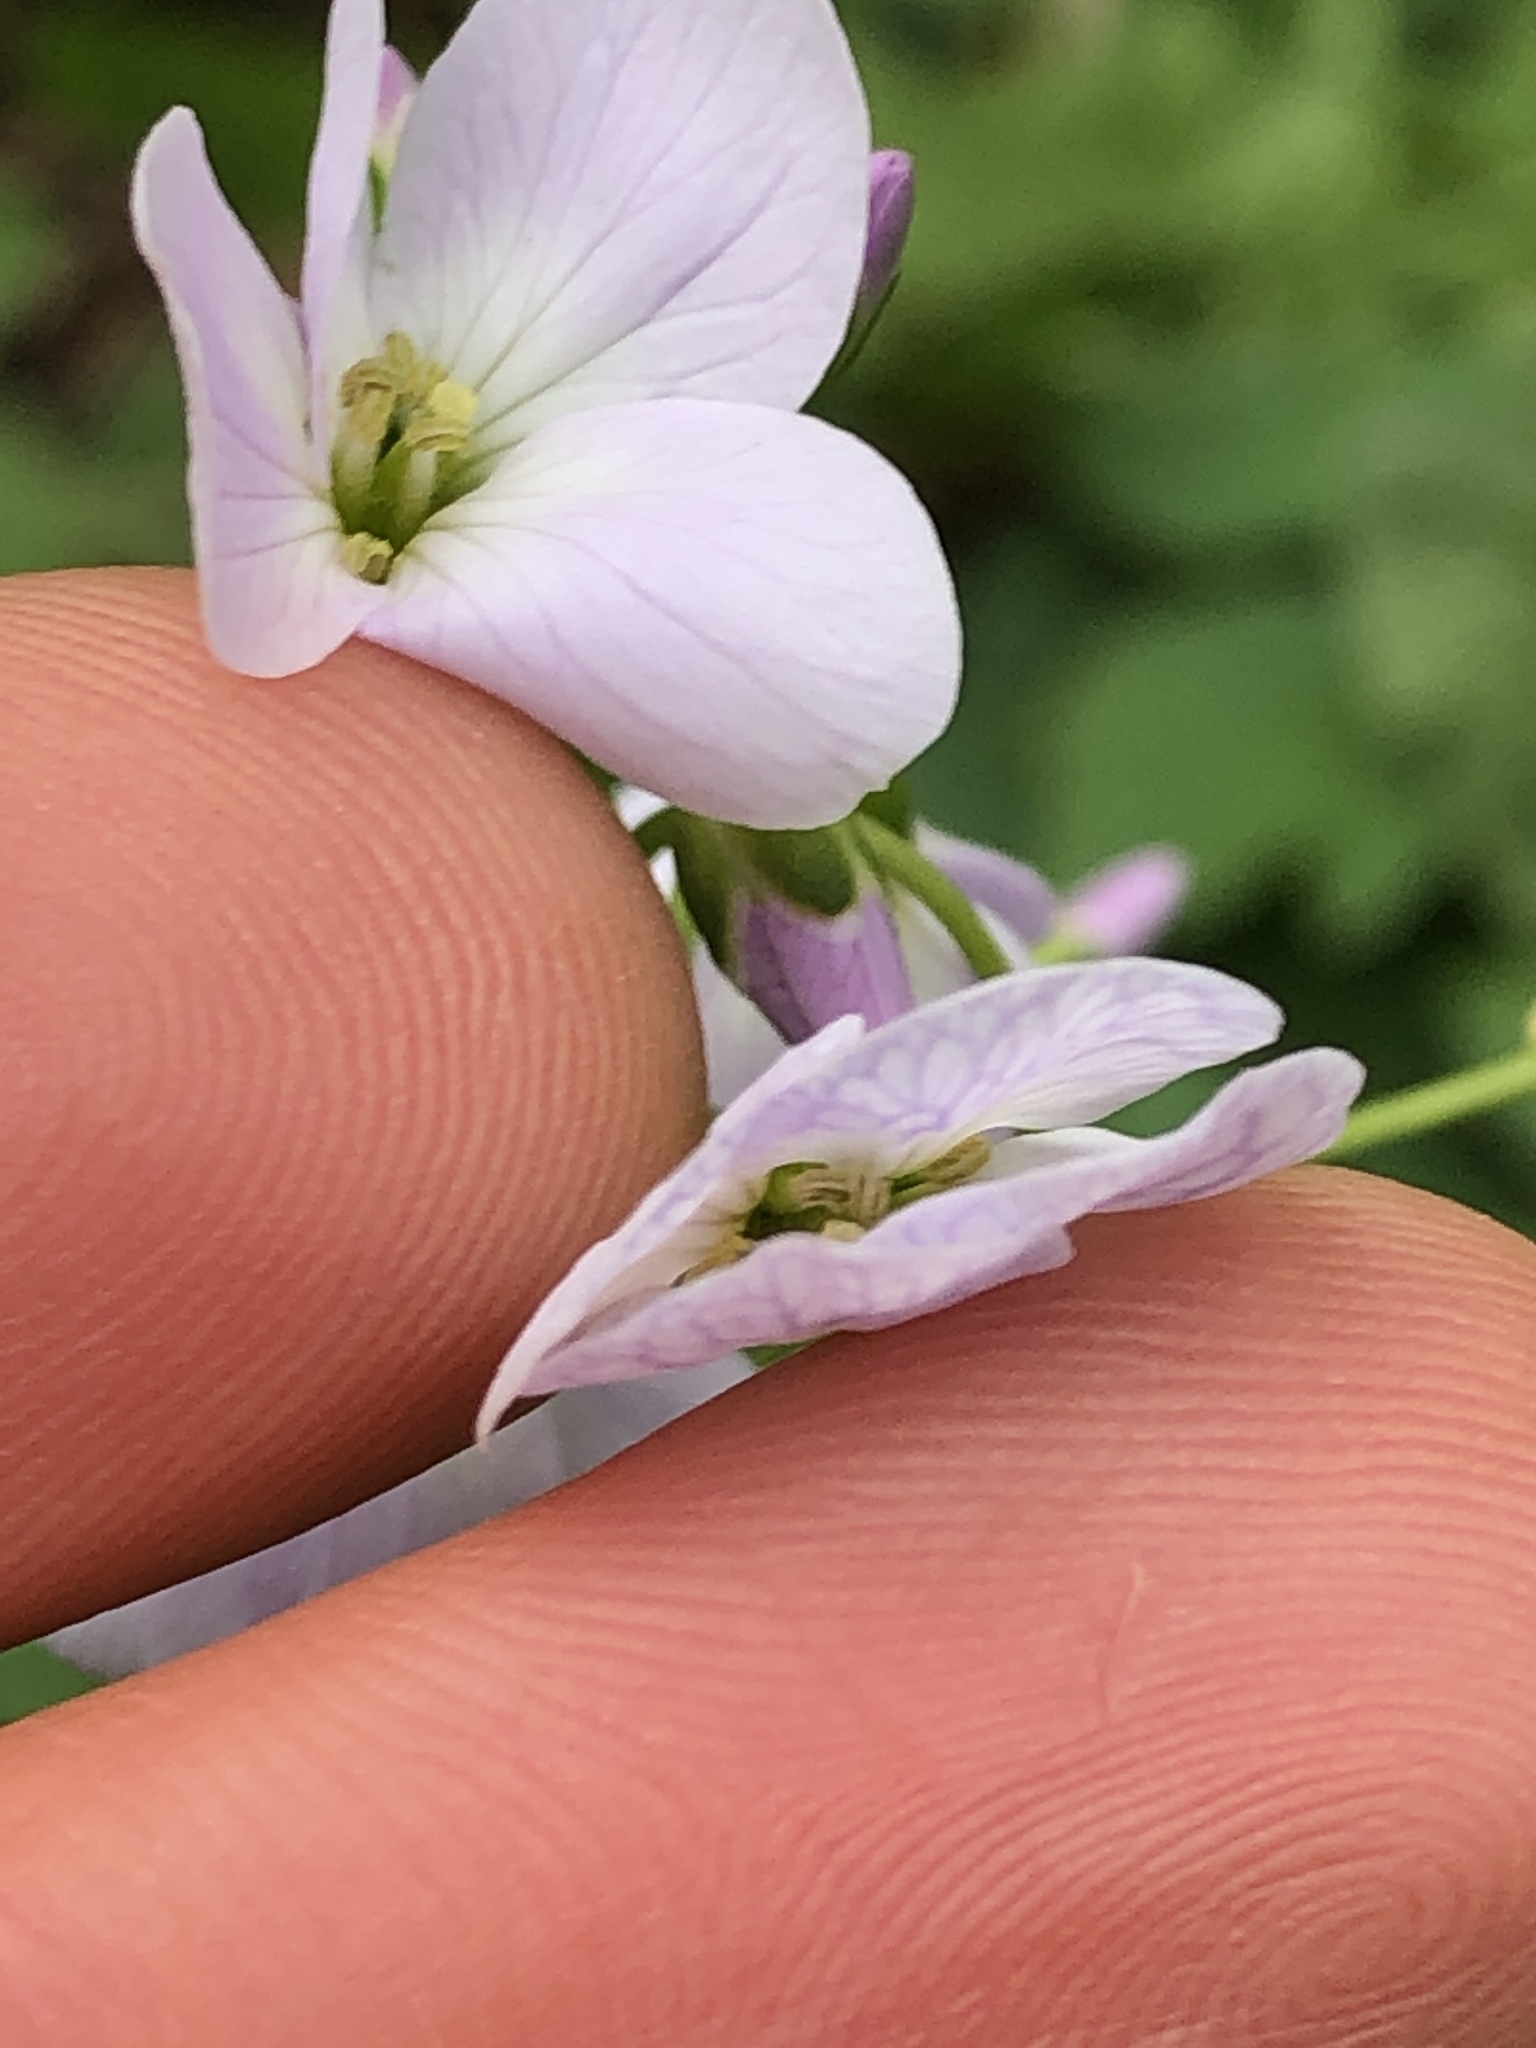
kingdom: Plantae
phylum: Tracheophyta
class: Magnoliopsida
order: Brassicales
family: Brassicaceae
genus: Cardamine
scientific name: Cardamine pratensis
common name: Cuckoo flower
